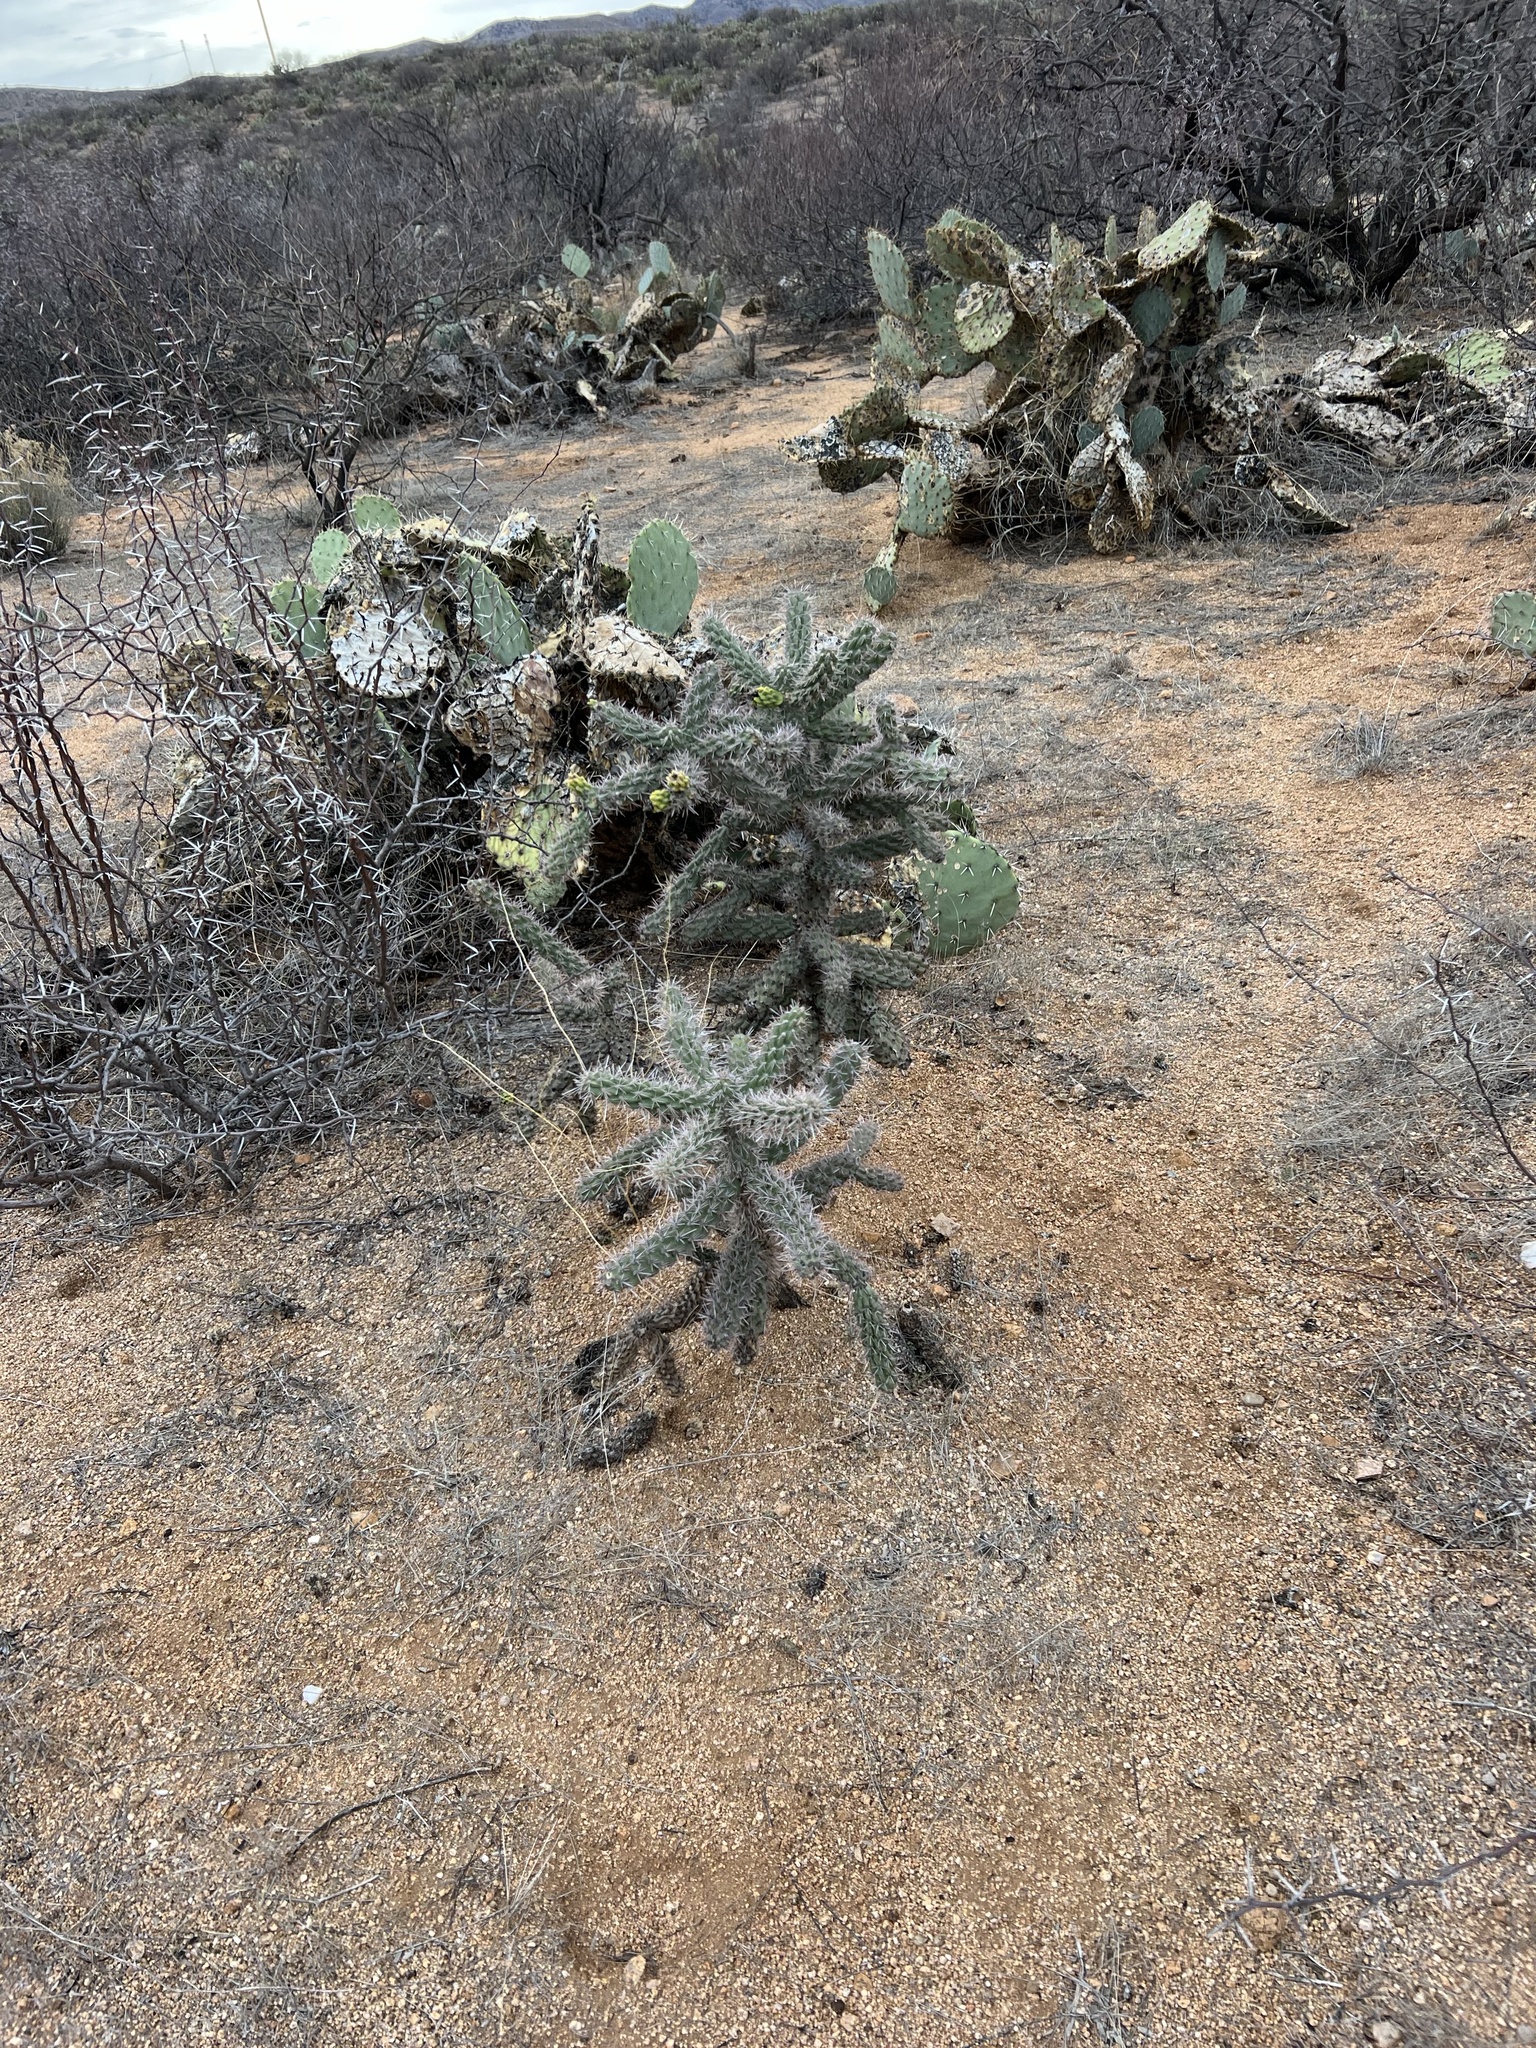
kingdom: Plantae
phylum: Tracheophyta
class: Magnoliopsida
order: Caryophyllales
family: Cactaceae
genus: Cylindropuntia
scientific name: Cylindropuntia imbricata
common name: Candelabrum cactus
